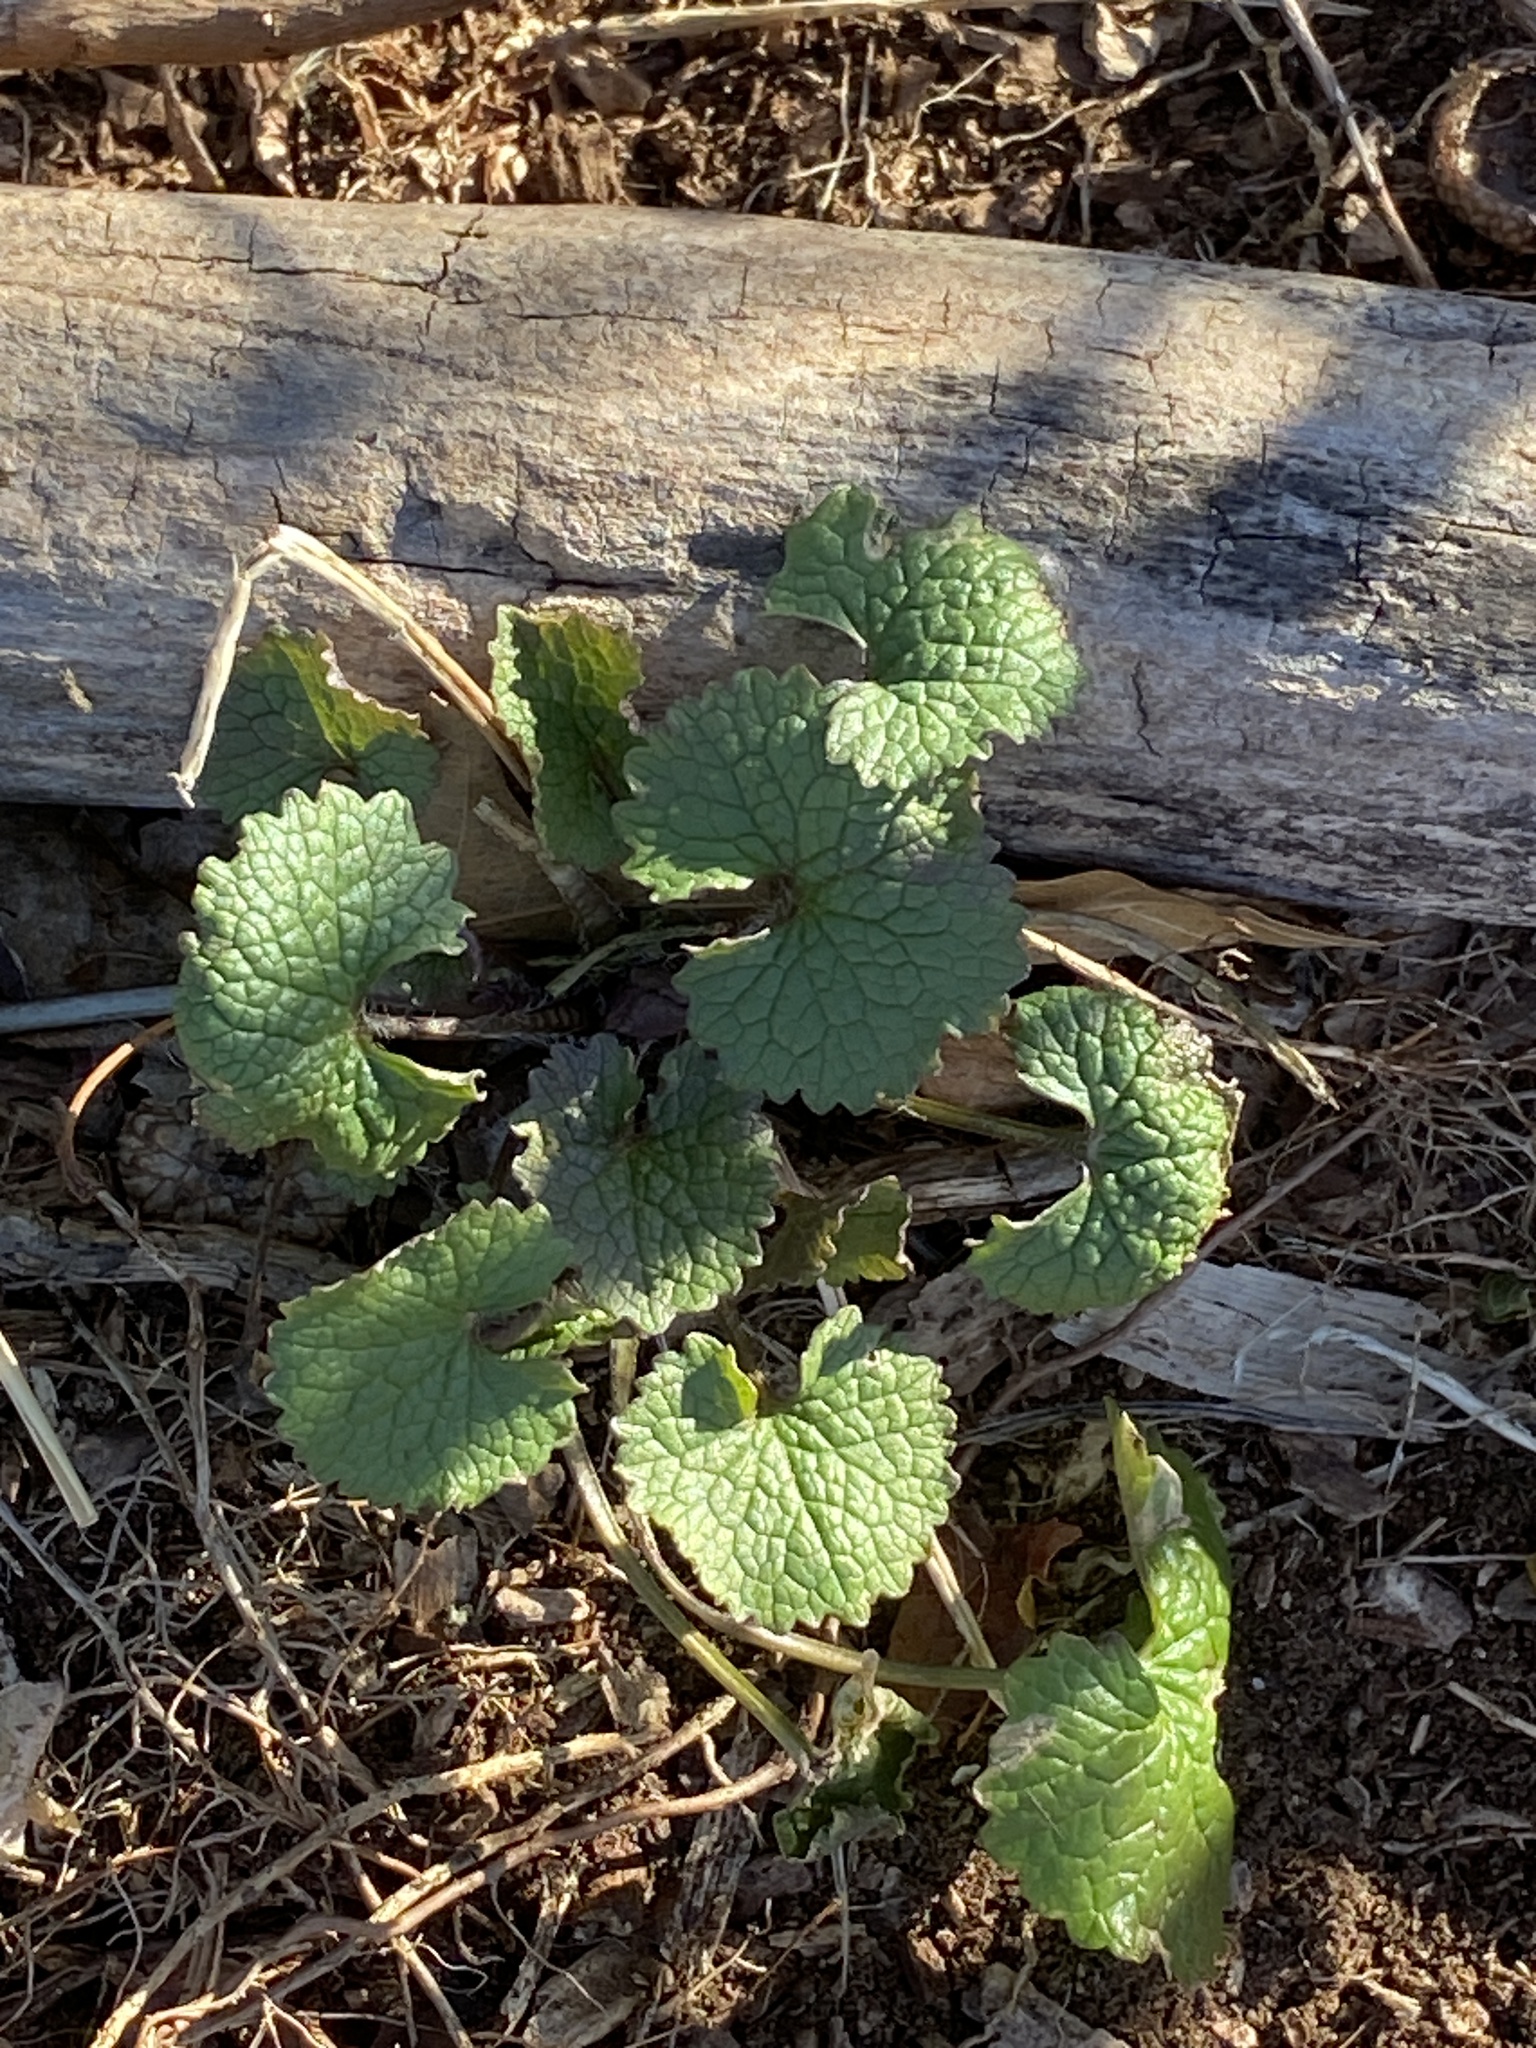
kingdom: Plantae
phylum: Tracheophyta
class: Magnoliopsida
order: Brassicales
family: Brassicaceae
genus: Alliaria
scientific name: Alliaria petiolata
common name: Garlic mustard
